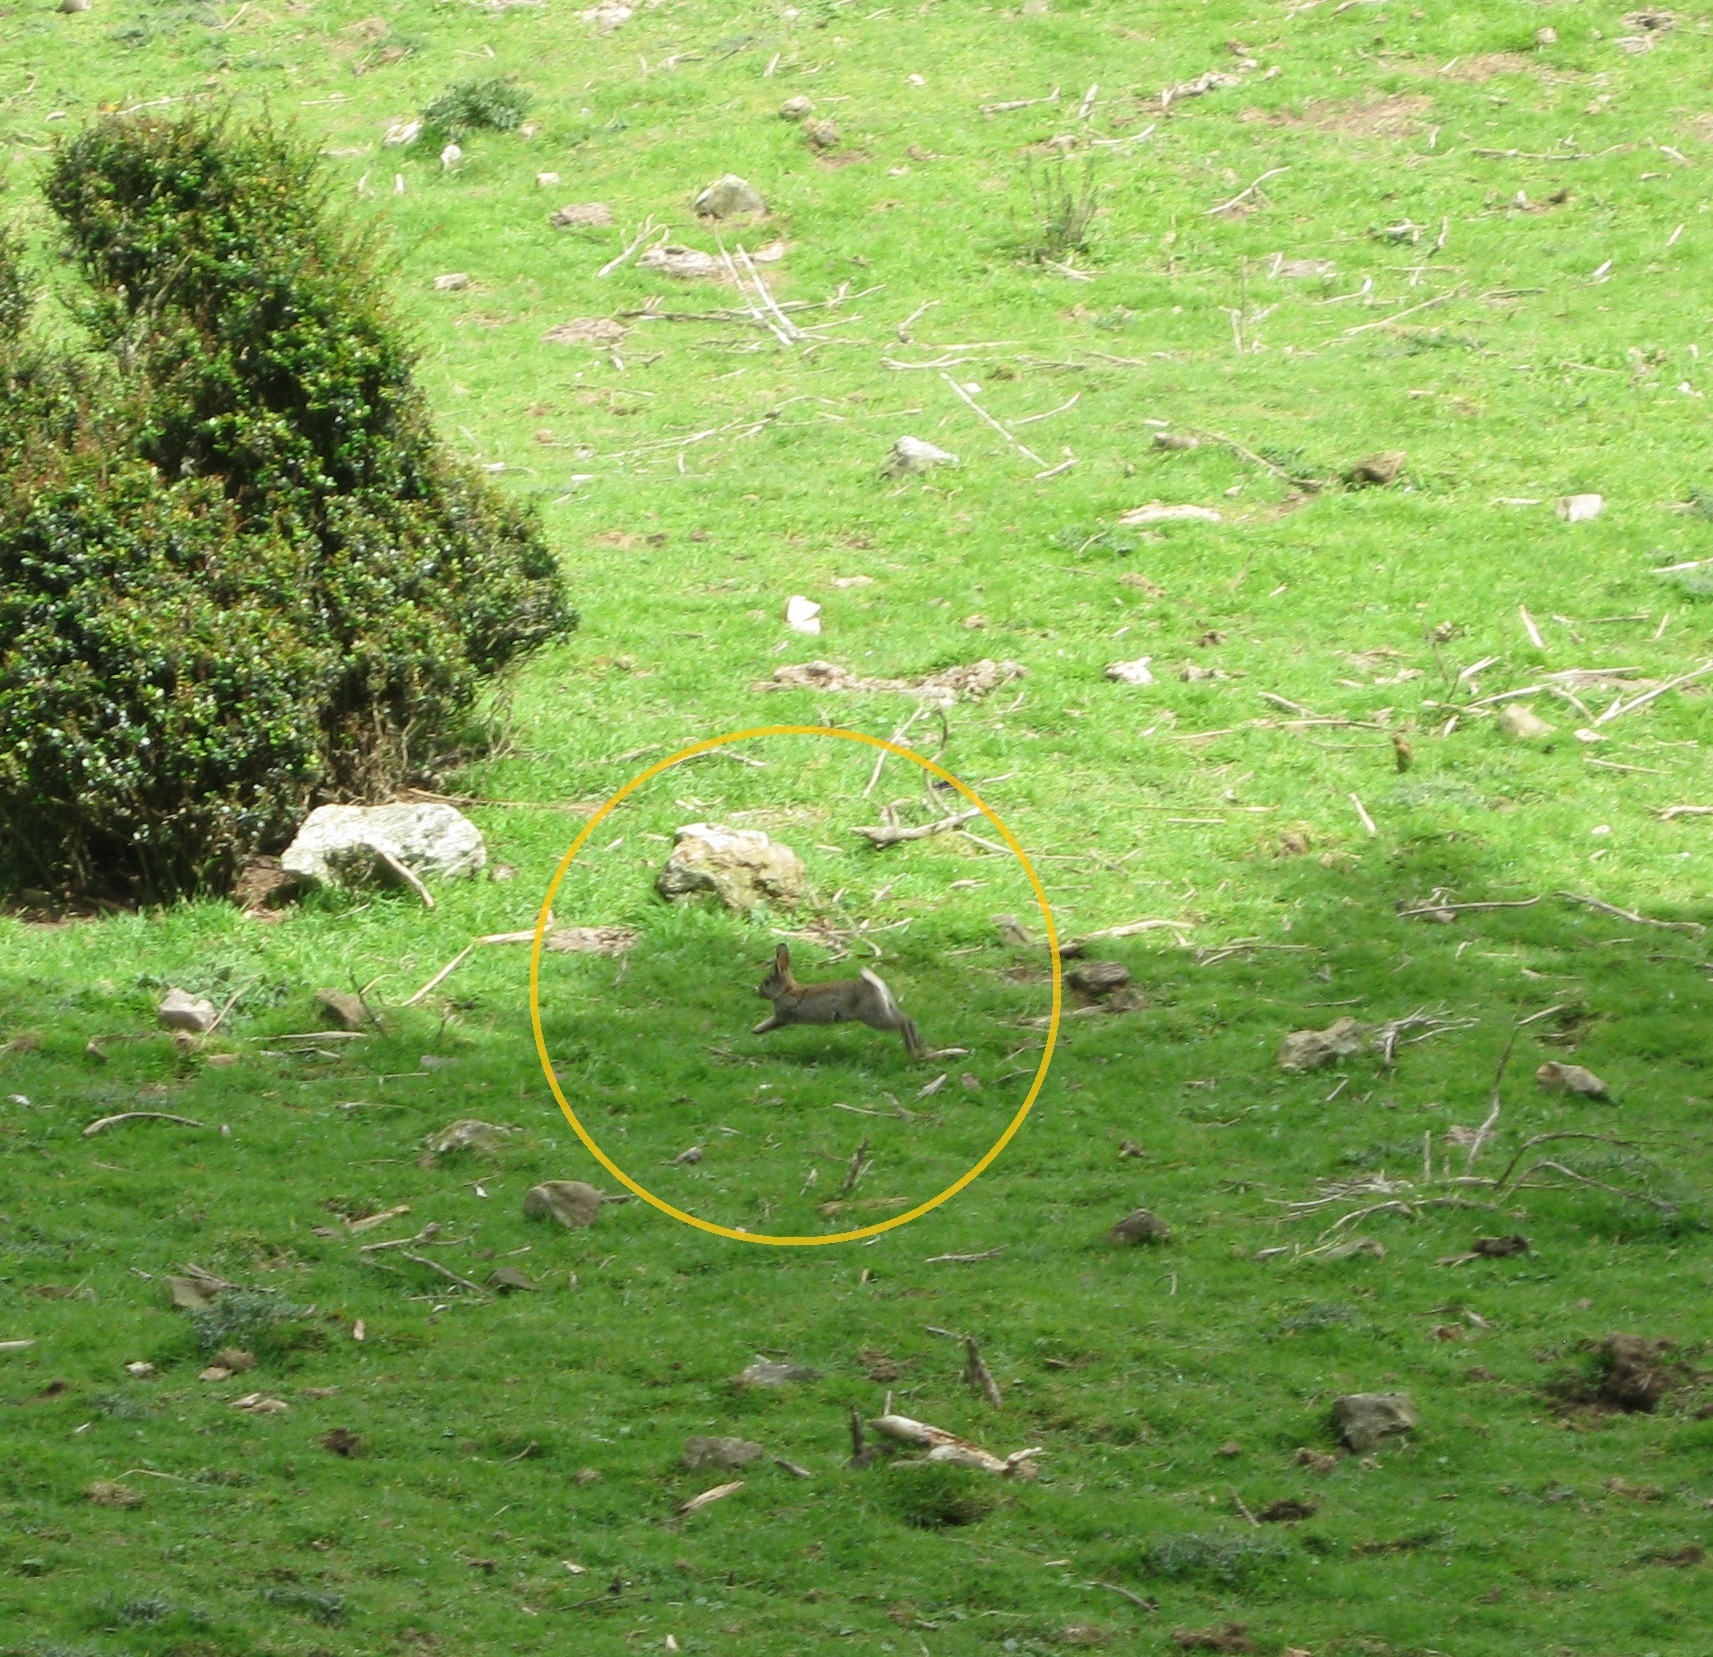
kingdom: Animalia
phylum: Chordata
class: Mammalia
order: Lagomorpha
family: Leporidae
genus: Oryctolagus
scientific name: Oryctolagus cuniculus
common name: European rabbit
